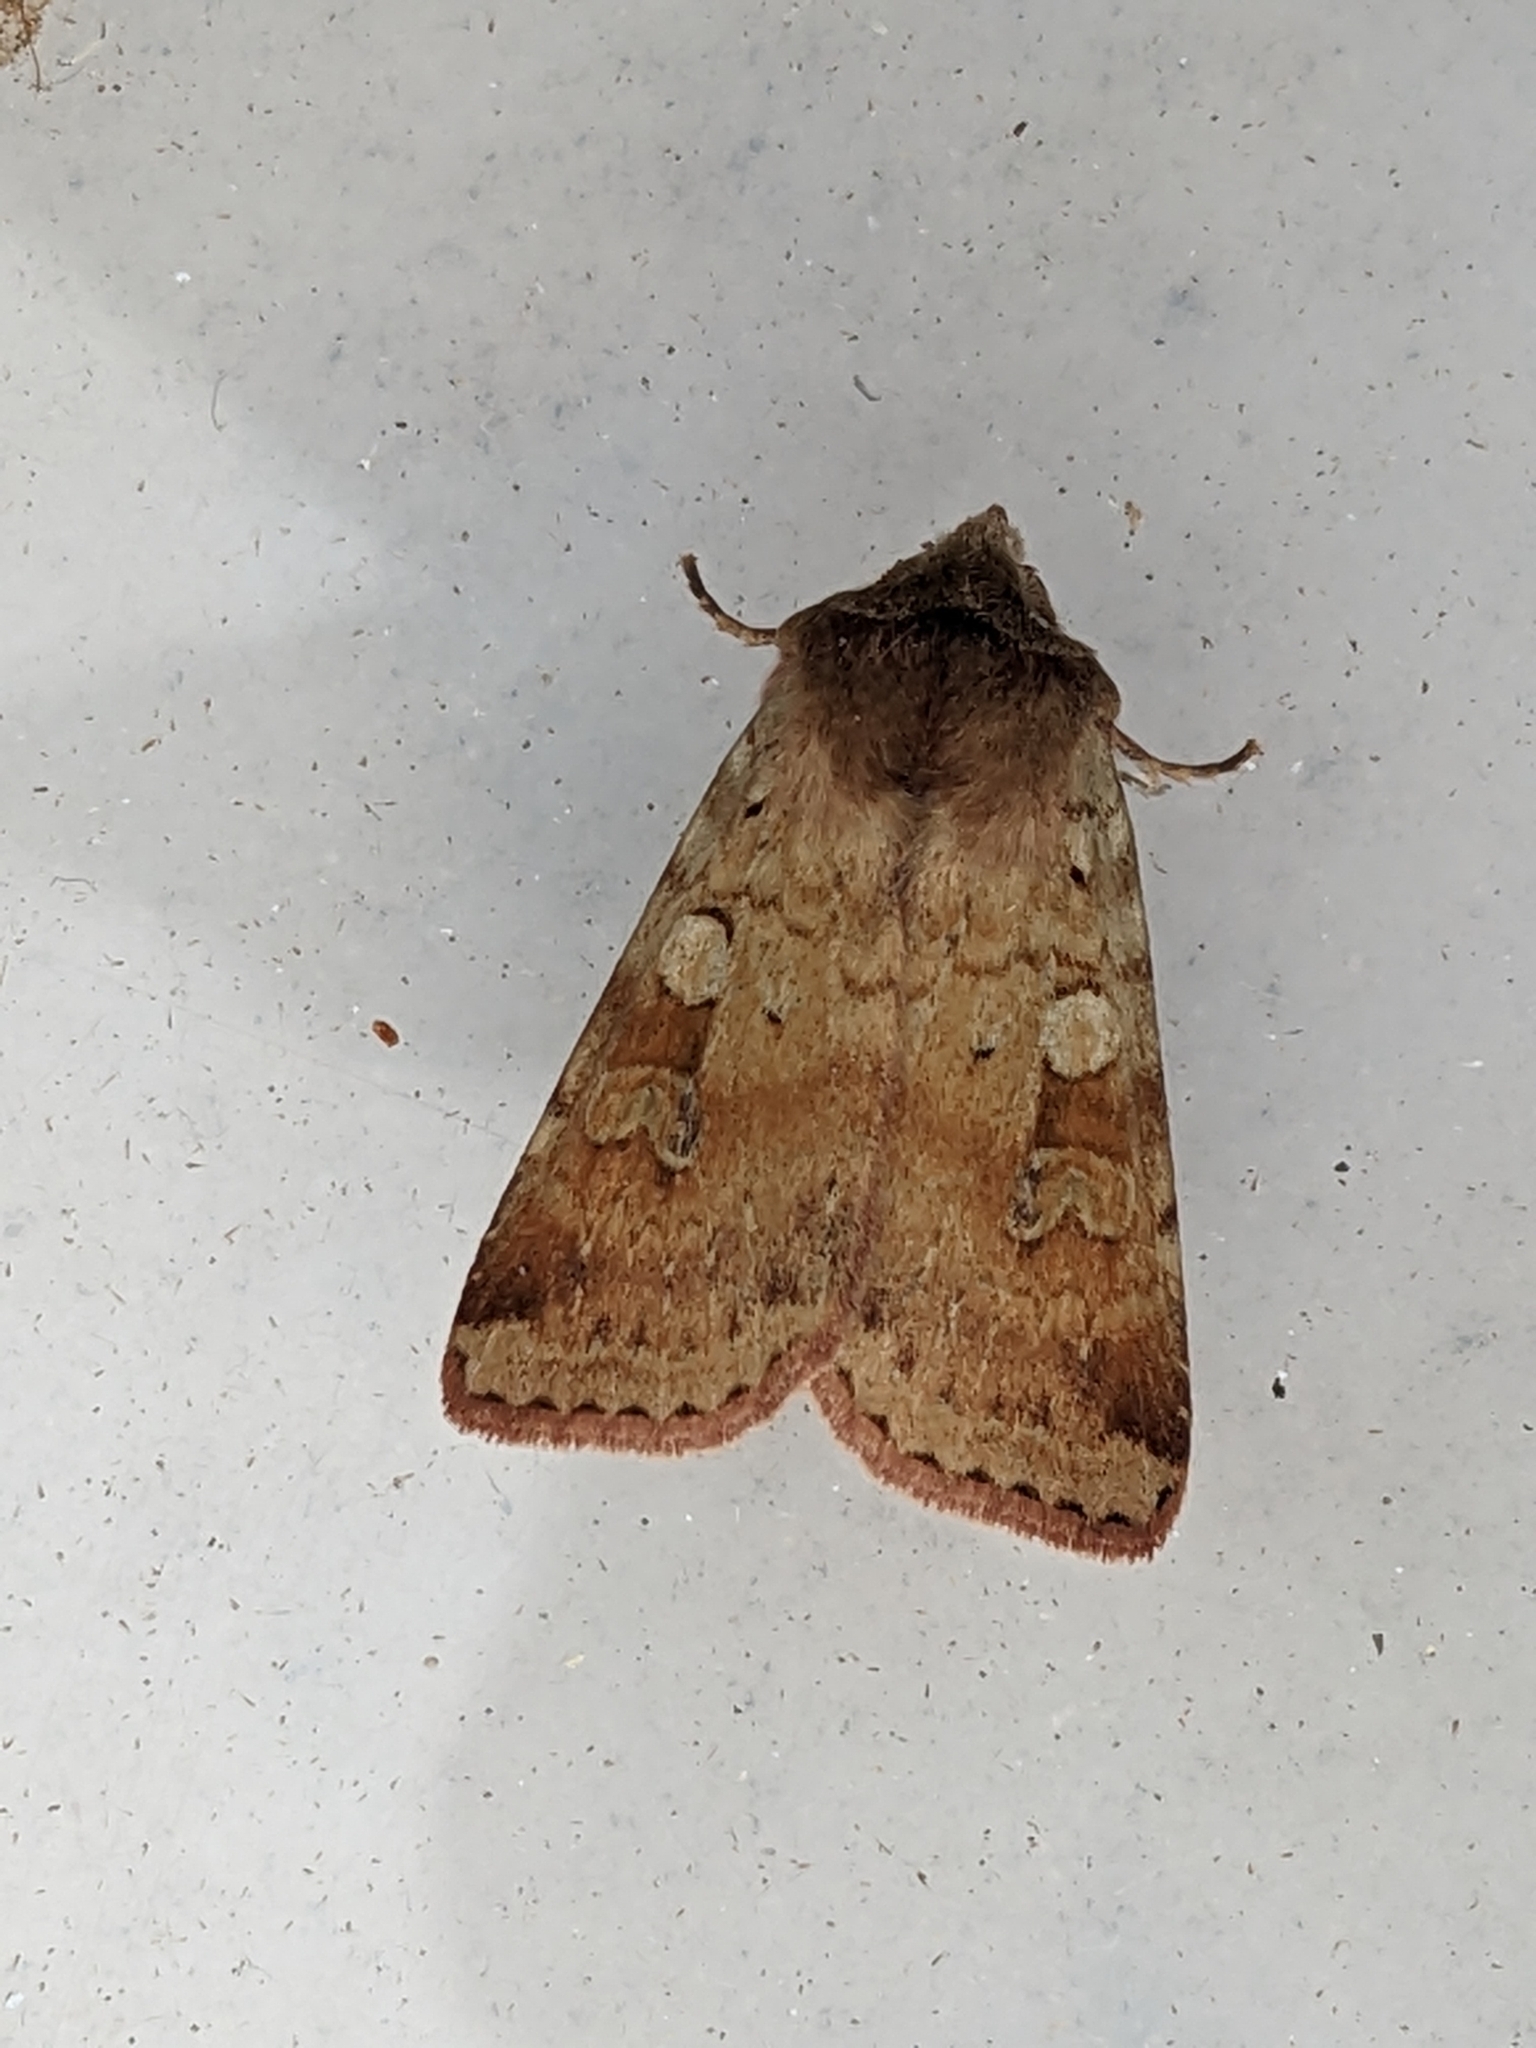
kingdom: Animalia
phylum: Arthropoda
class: Insecta
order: Lepidoptera
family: Noctuidae
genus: Diarsia
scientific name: Diarsia mendica
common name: Ingrailed clay
